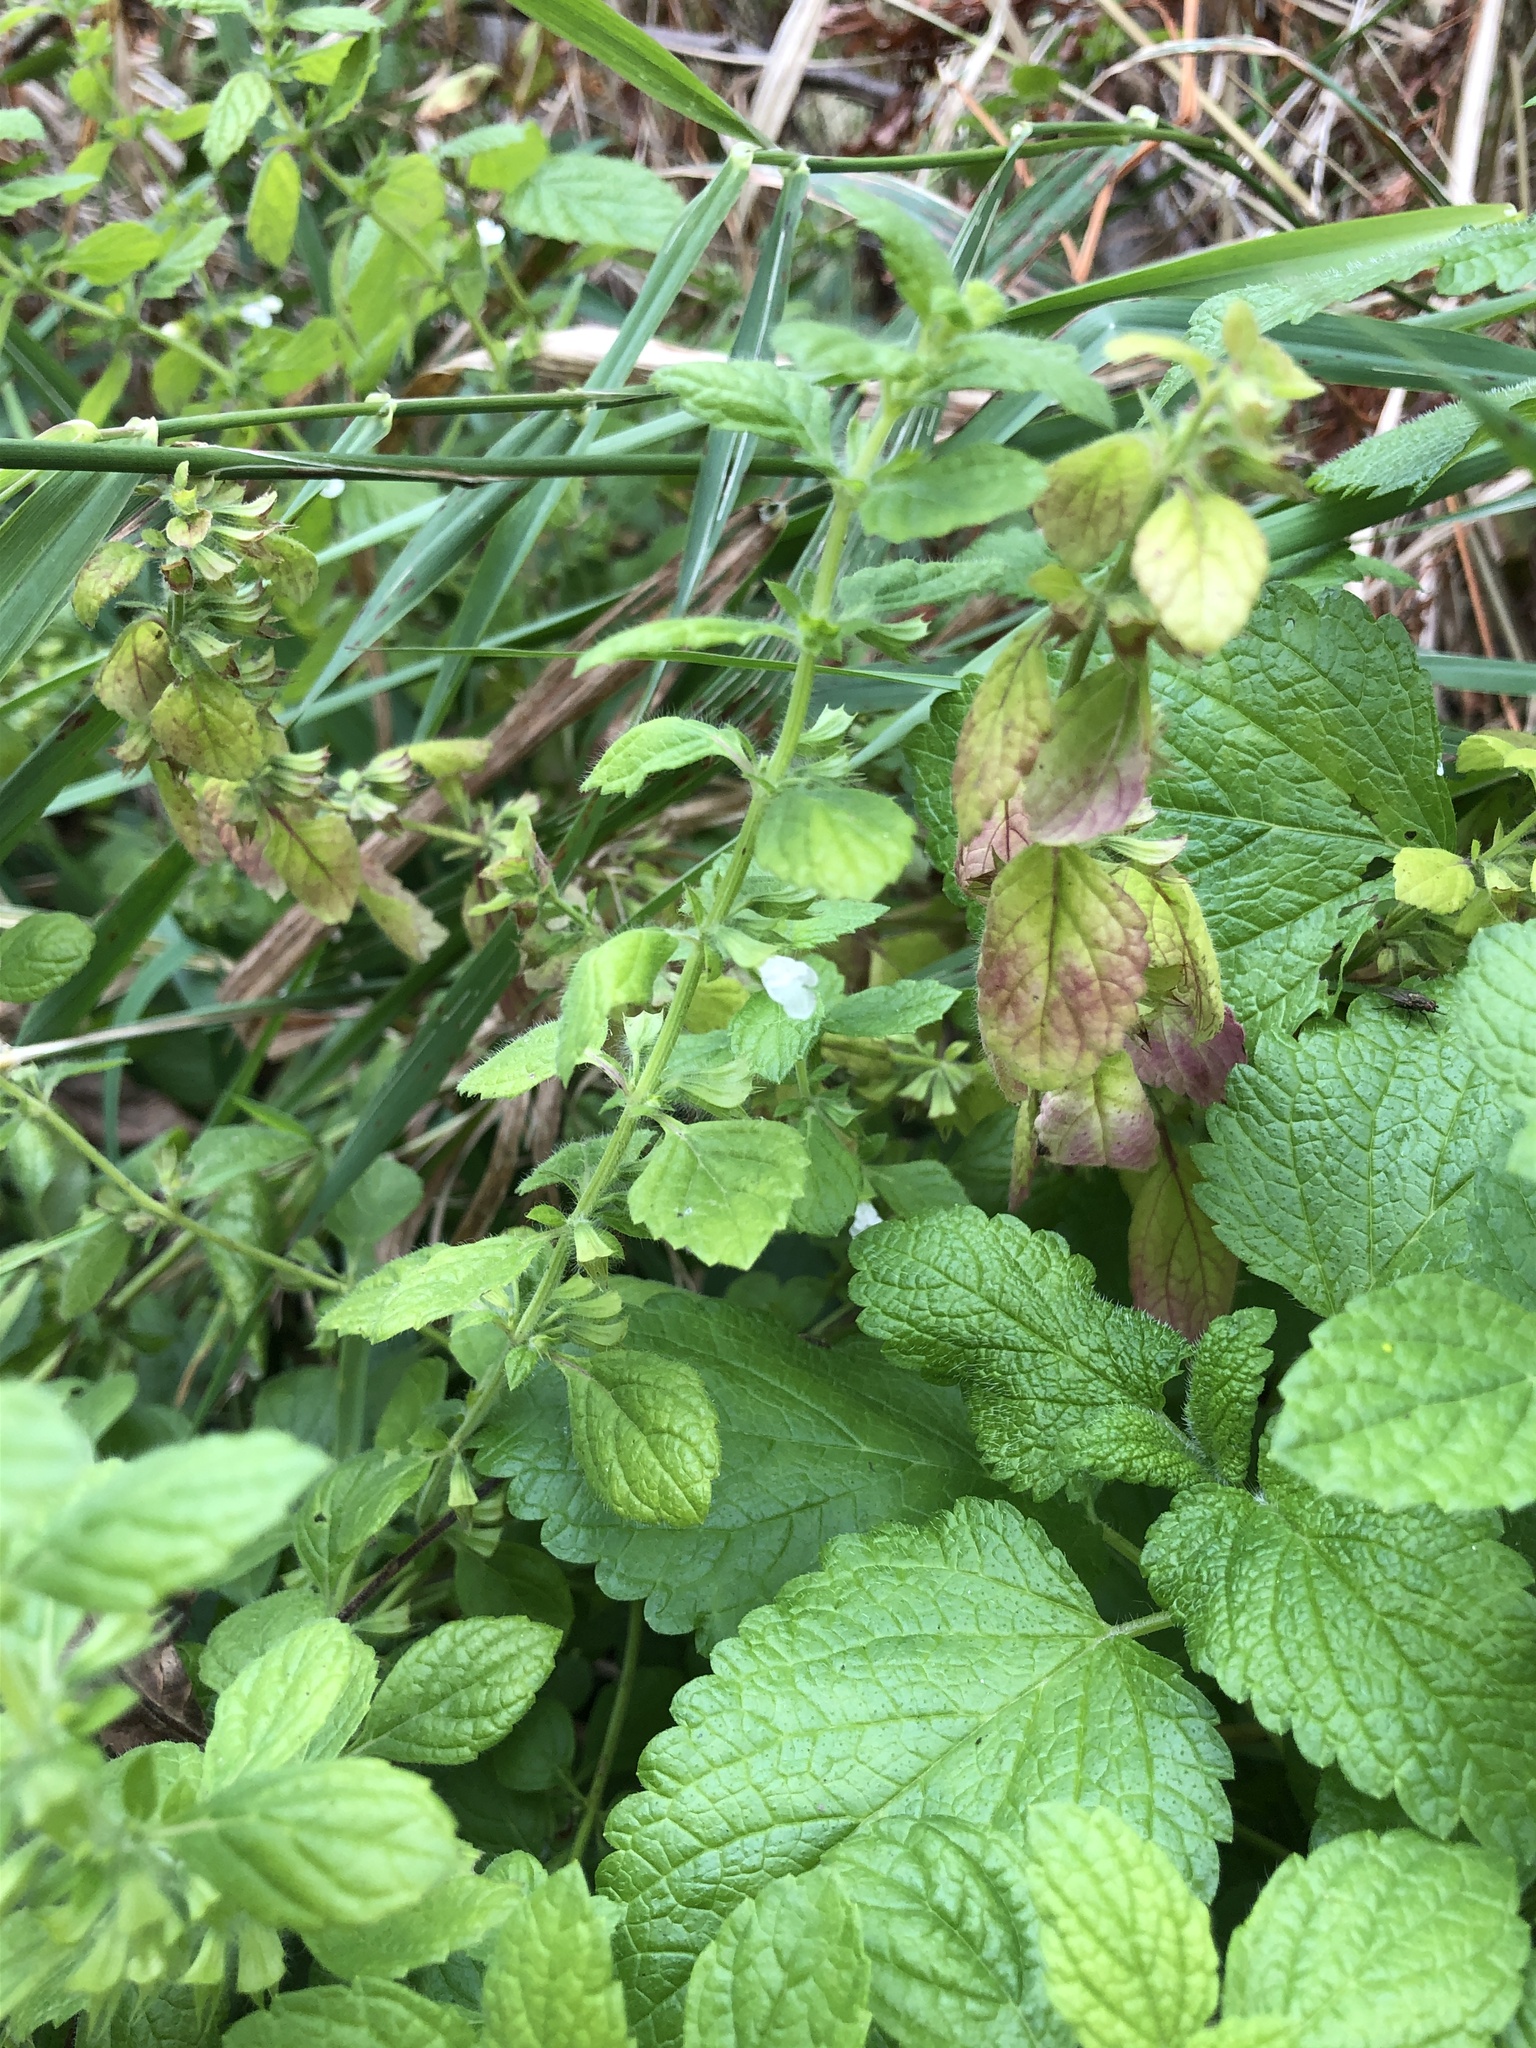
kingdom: Plantae
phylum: Tracheophyta
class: Magnoliopsida
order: Lamiales
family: Lamiaceae
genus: Melissa
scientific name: Melissa officinalis
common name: Balm
